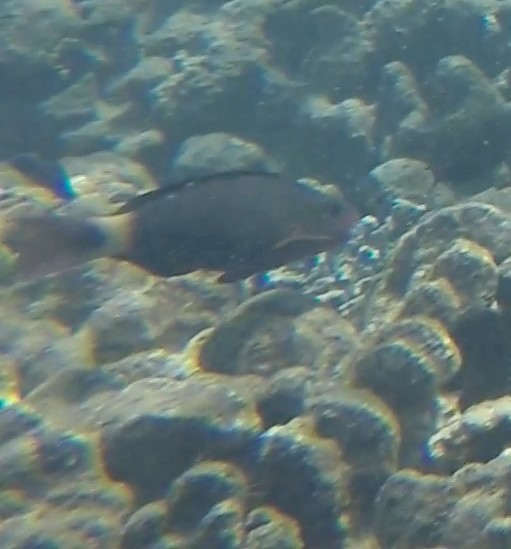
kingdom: Animalia
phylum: Chordata
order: Perciformes
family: Scaridae
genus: Chlorurus
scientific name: Chlorurus spilurus
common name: Bullethead parrotfish
